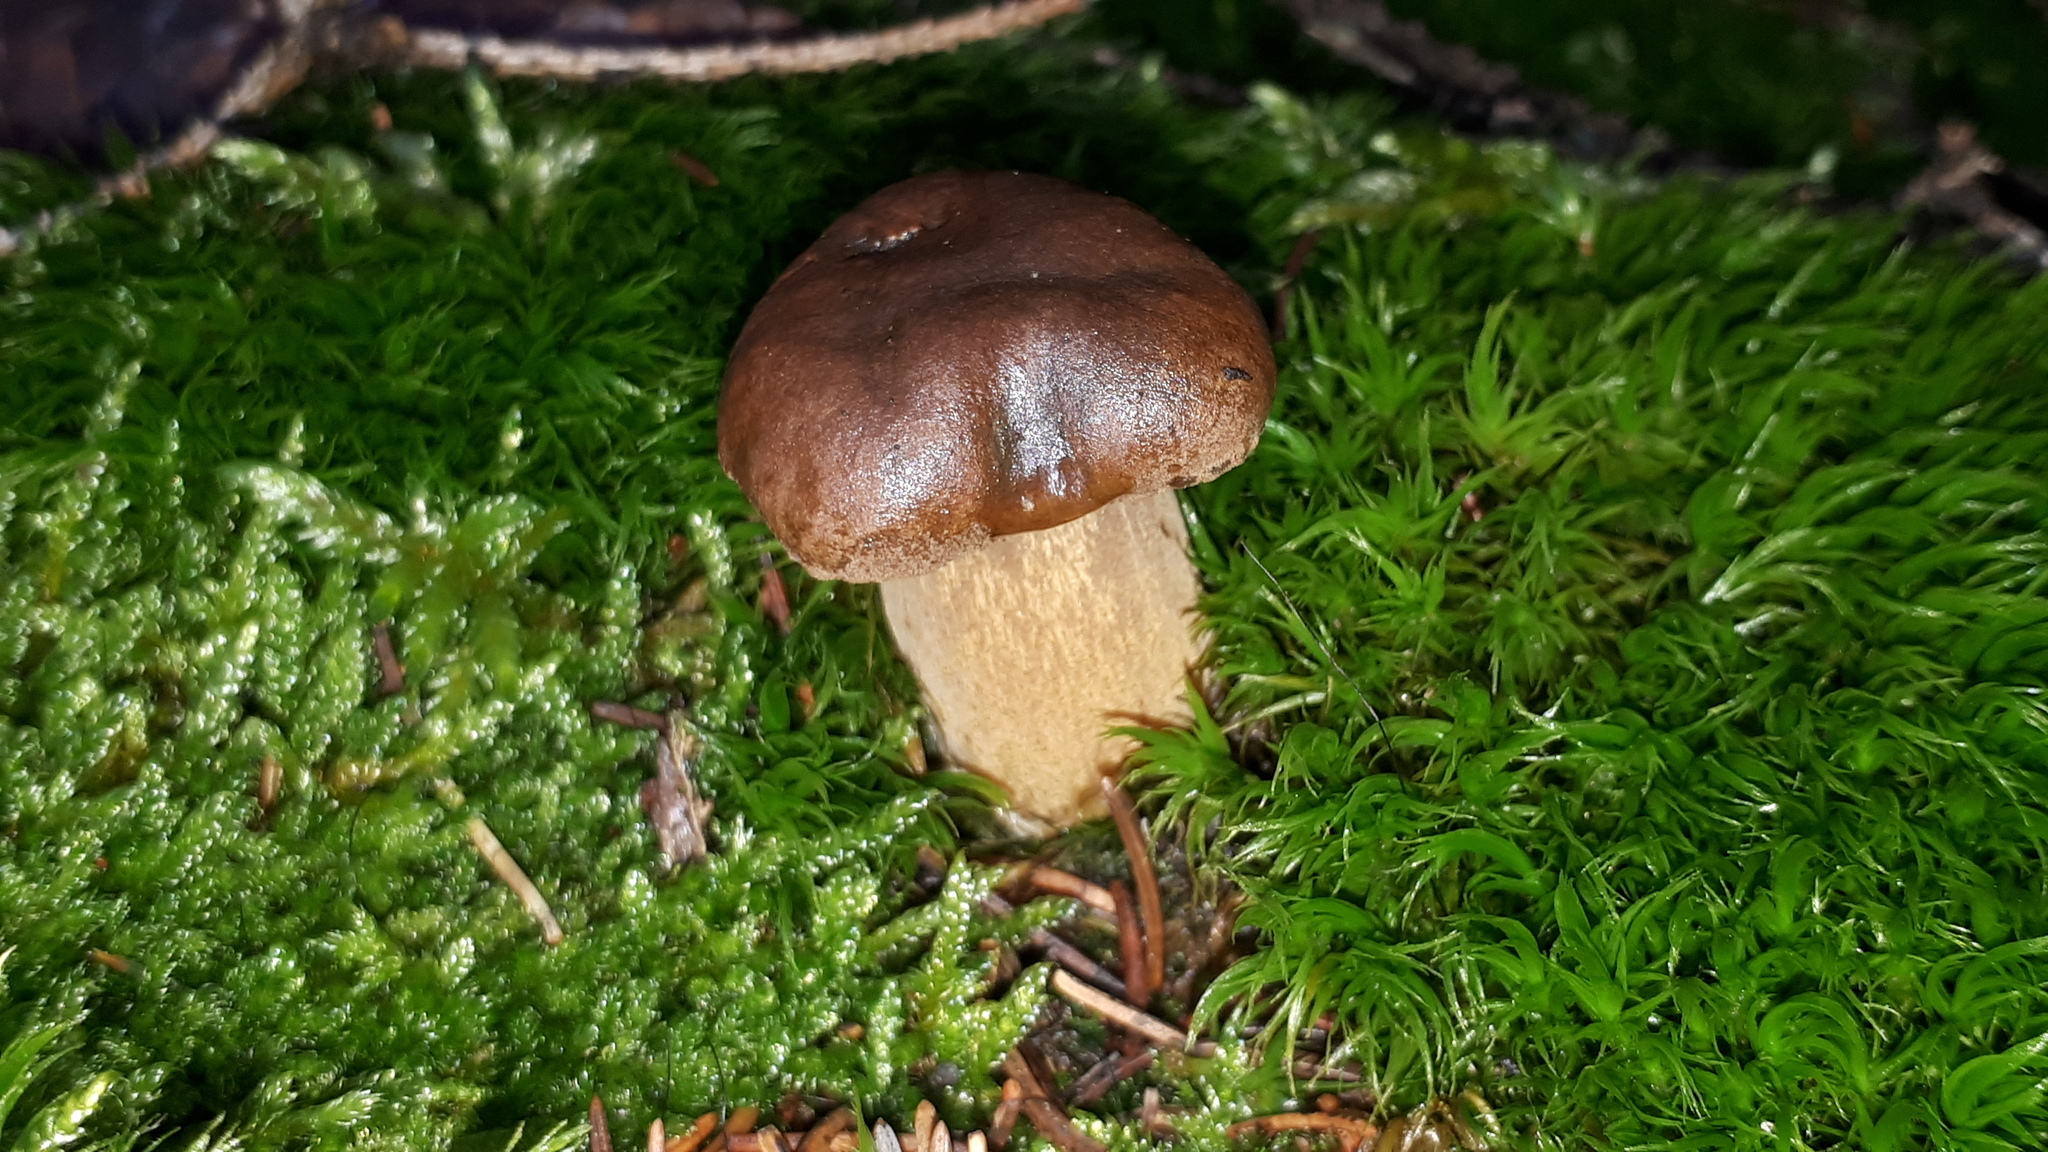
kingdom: Fungi
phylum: Basidiomycota
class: Agaricomycetes
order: Boletales
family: Boletaceae
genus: Imleria
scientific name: Imleria badia
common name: Bay bolete
